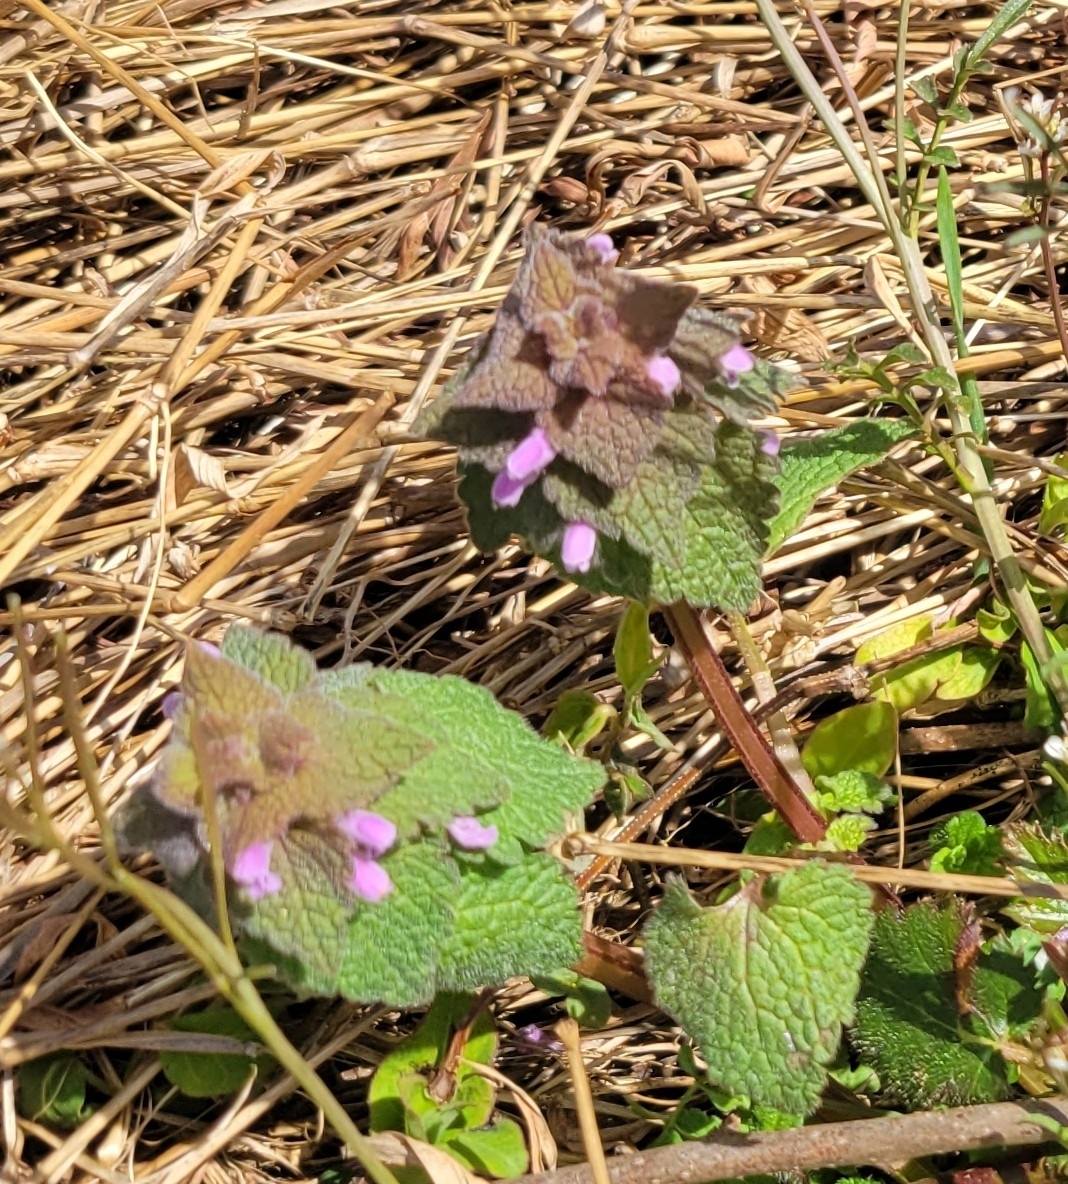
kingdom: Plantae
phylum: Tracheophyta
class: Magnoliopsida
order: Lamiales
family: Lamiaceae
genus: Lamium
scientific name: Lamium purpureum
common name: Red dead-nettle
